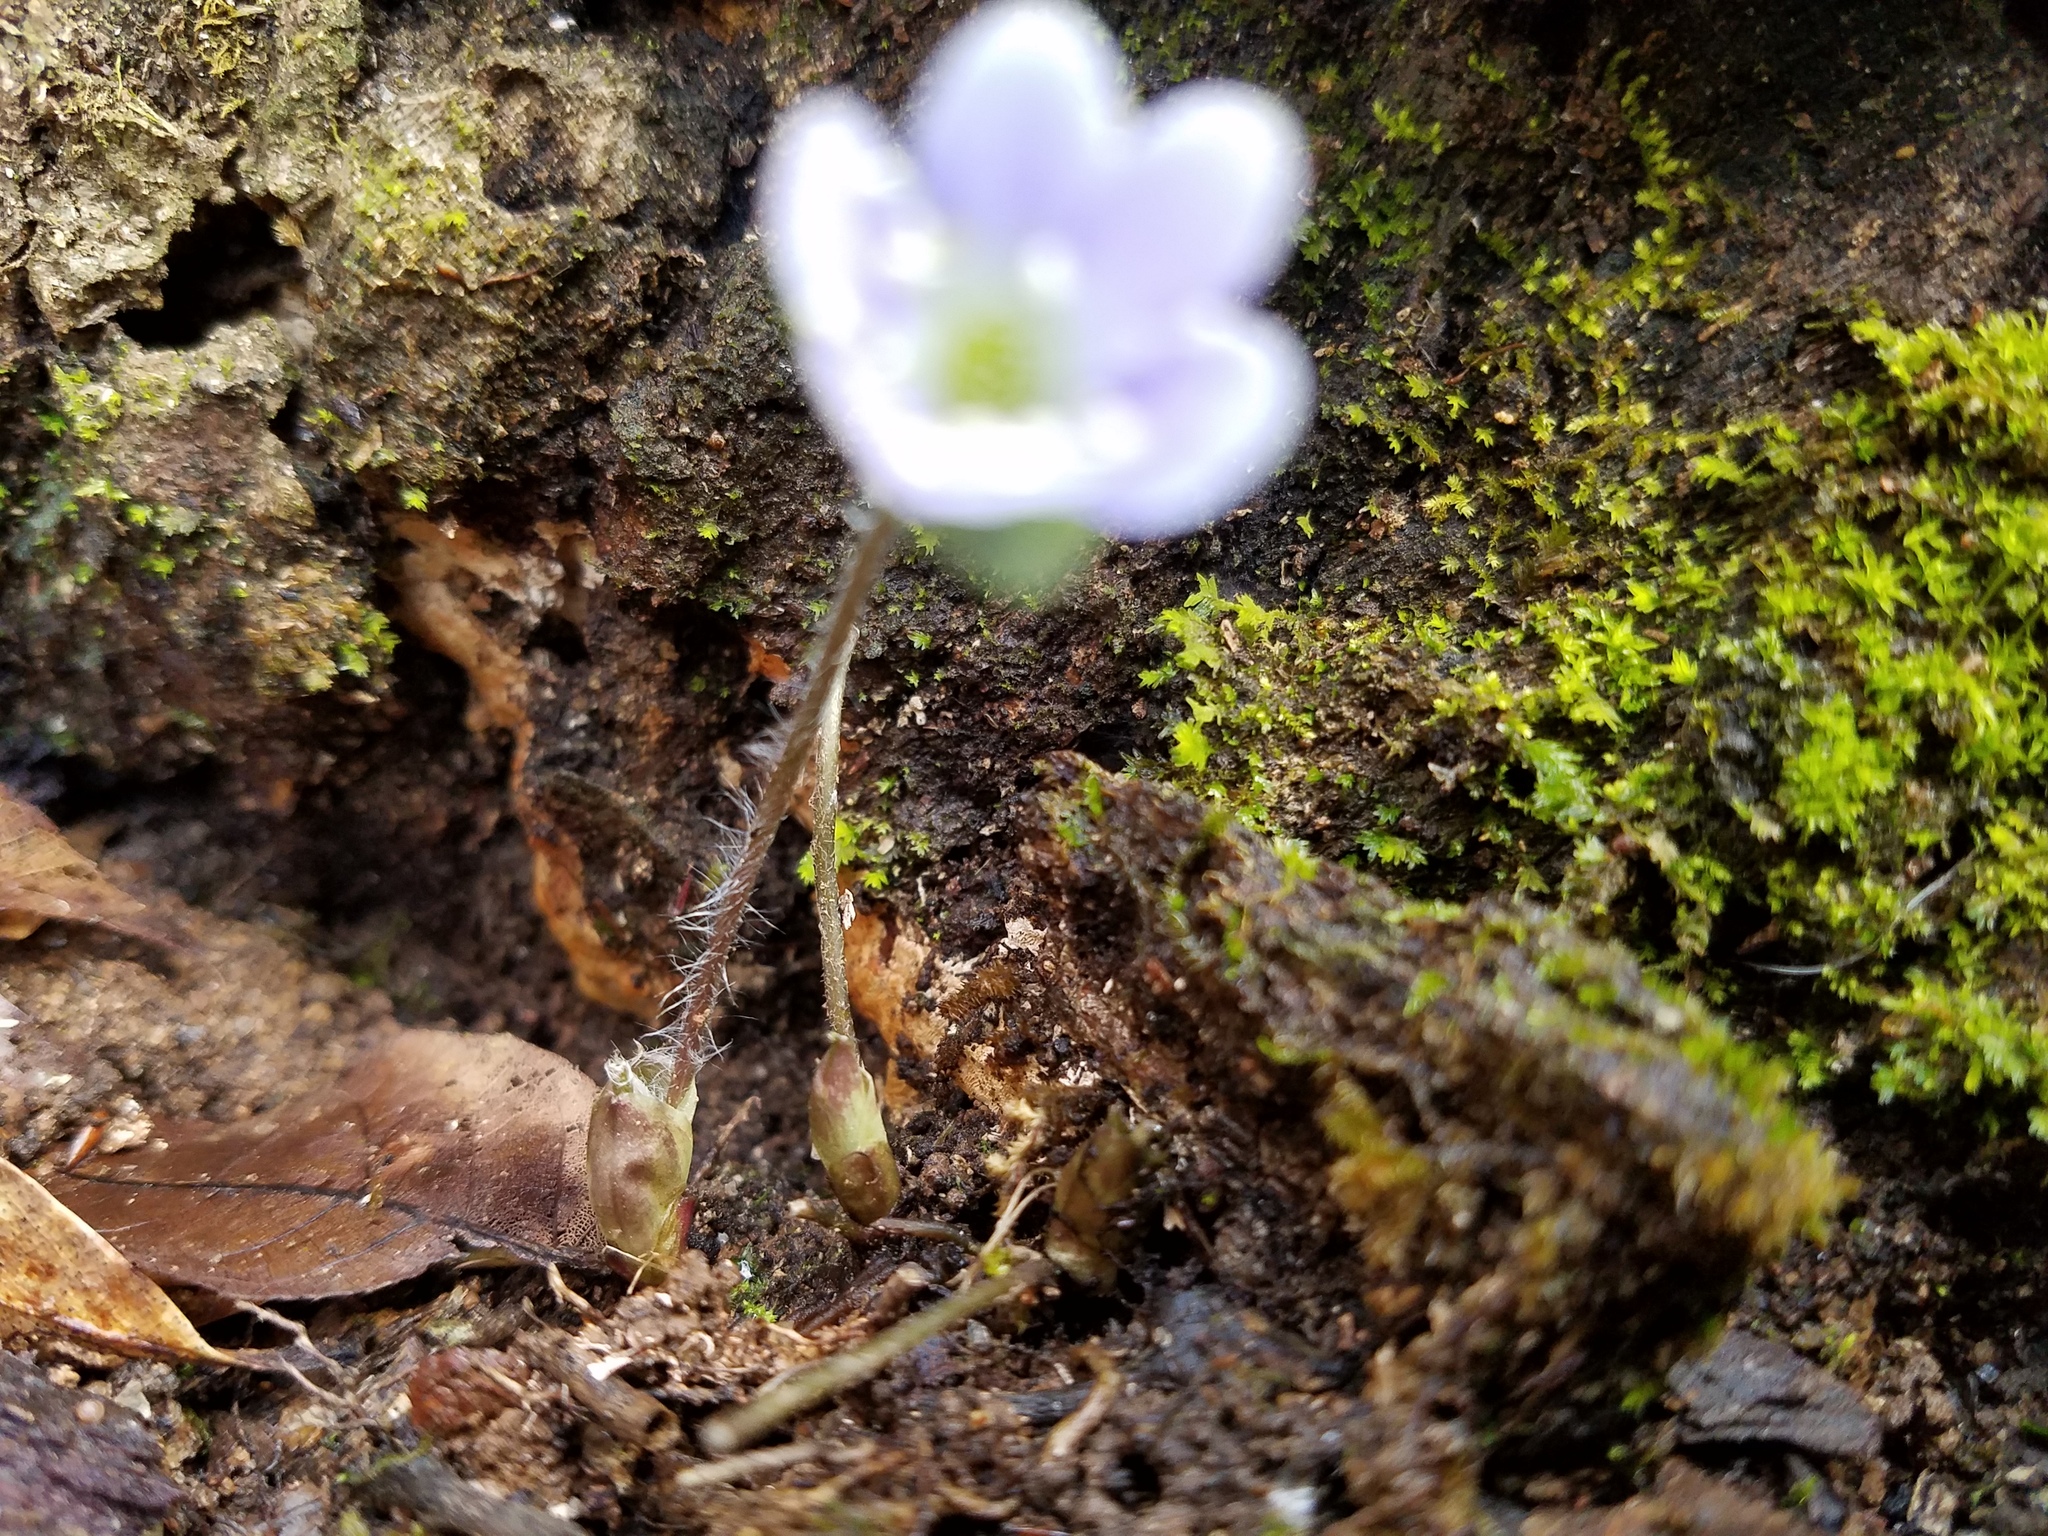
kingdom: Plantae
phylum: Tracheophyta
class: Magnoliopsida
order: Ranunculales
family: Ranunculaceae
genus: Hepatica
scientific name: Hepatica americana
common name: American hepatica
